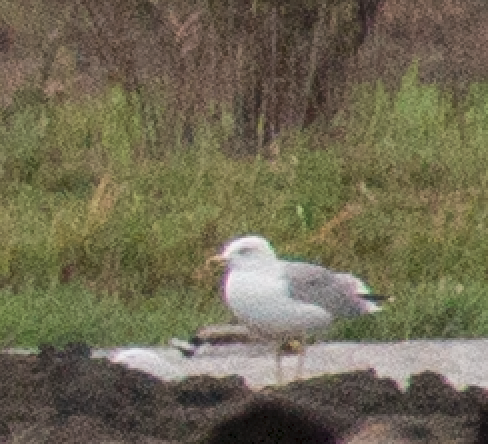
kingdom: Animalia
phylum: Chordata
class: Aves
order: Charadriiformes
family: Laridae
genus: Larus
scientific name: Larus michahellis
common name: Yellow-legged gull
